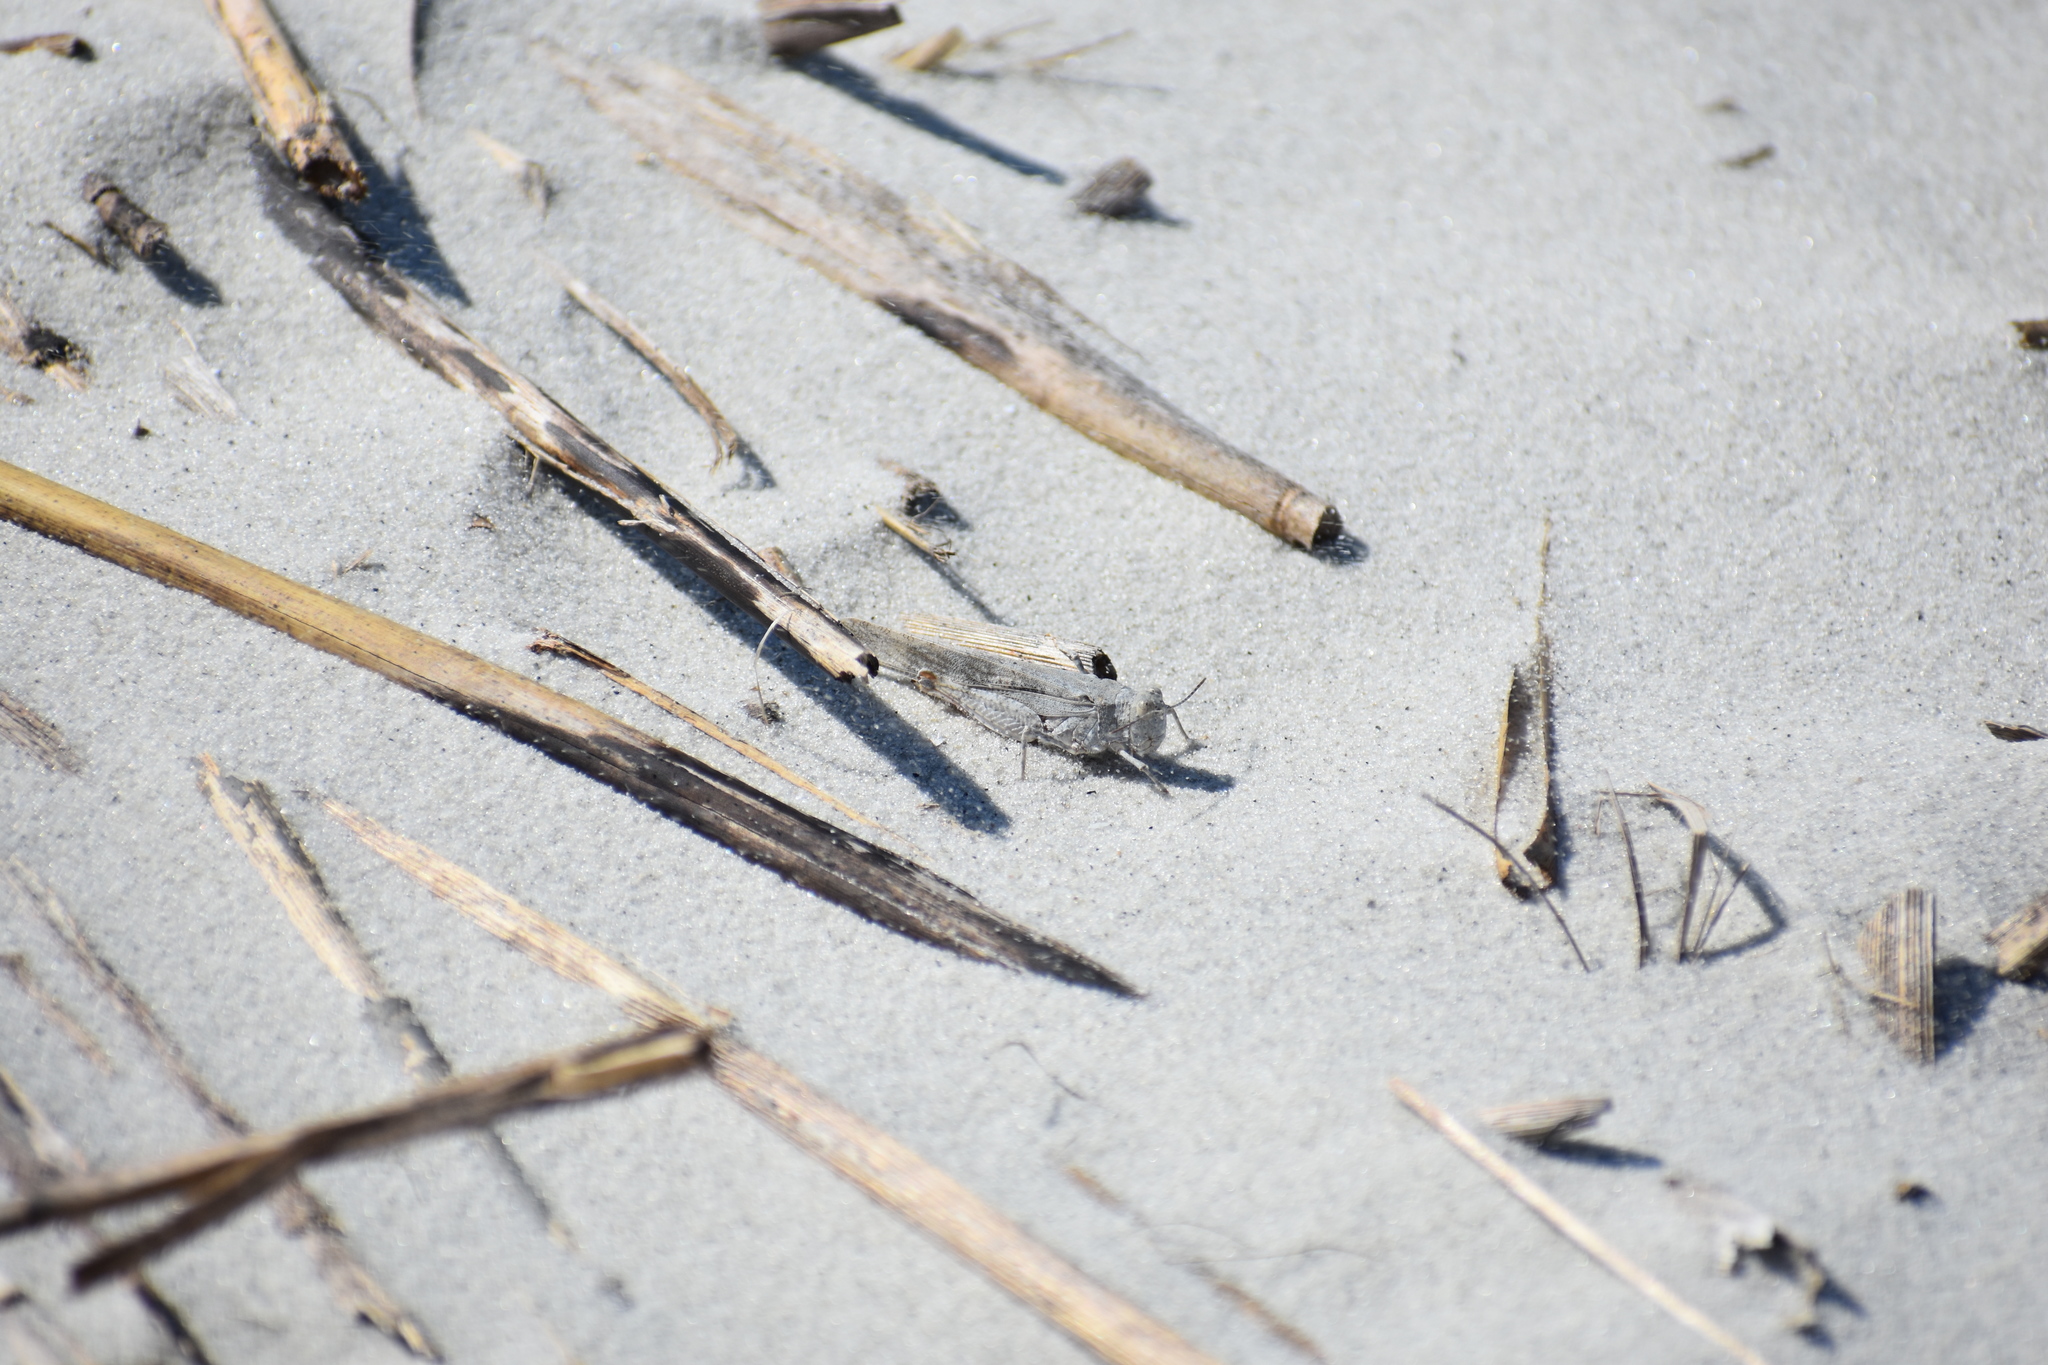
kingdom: Animalia
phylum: Arthropoda
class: Insecta
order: Orthoptera
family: Acrididae
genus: Trimerotropis
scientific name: Trimerotropis maritima
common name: Seaside locust
